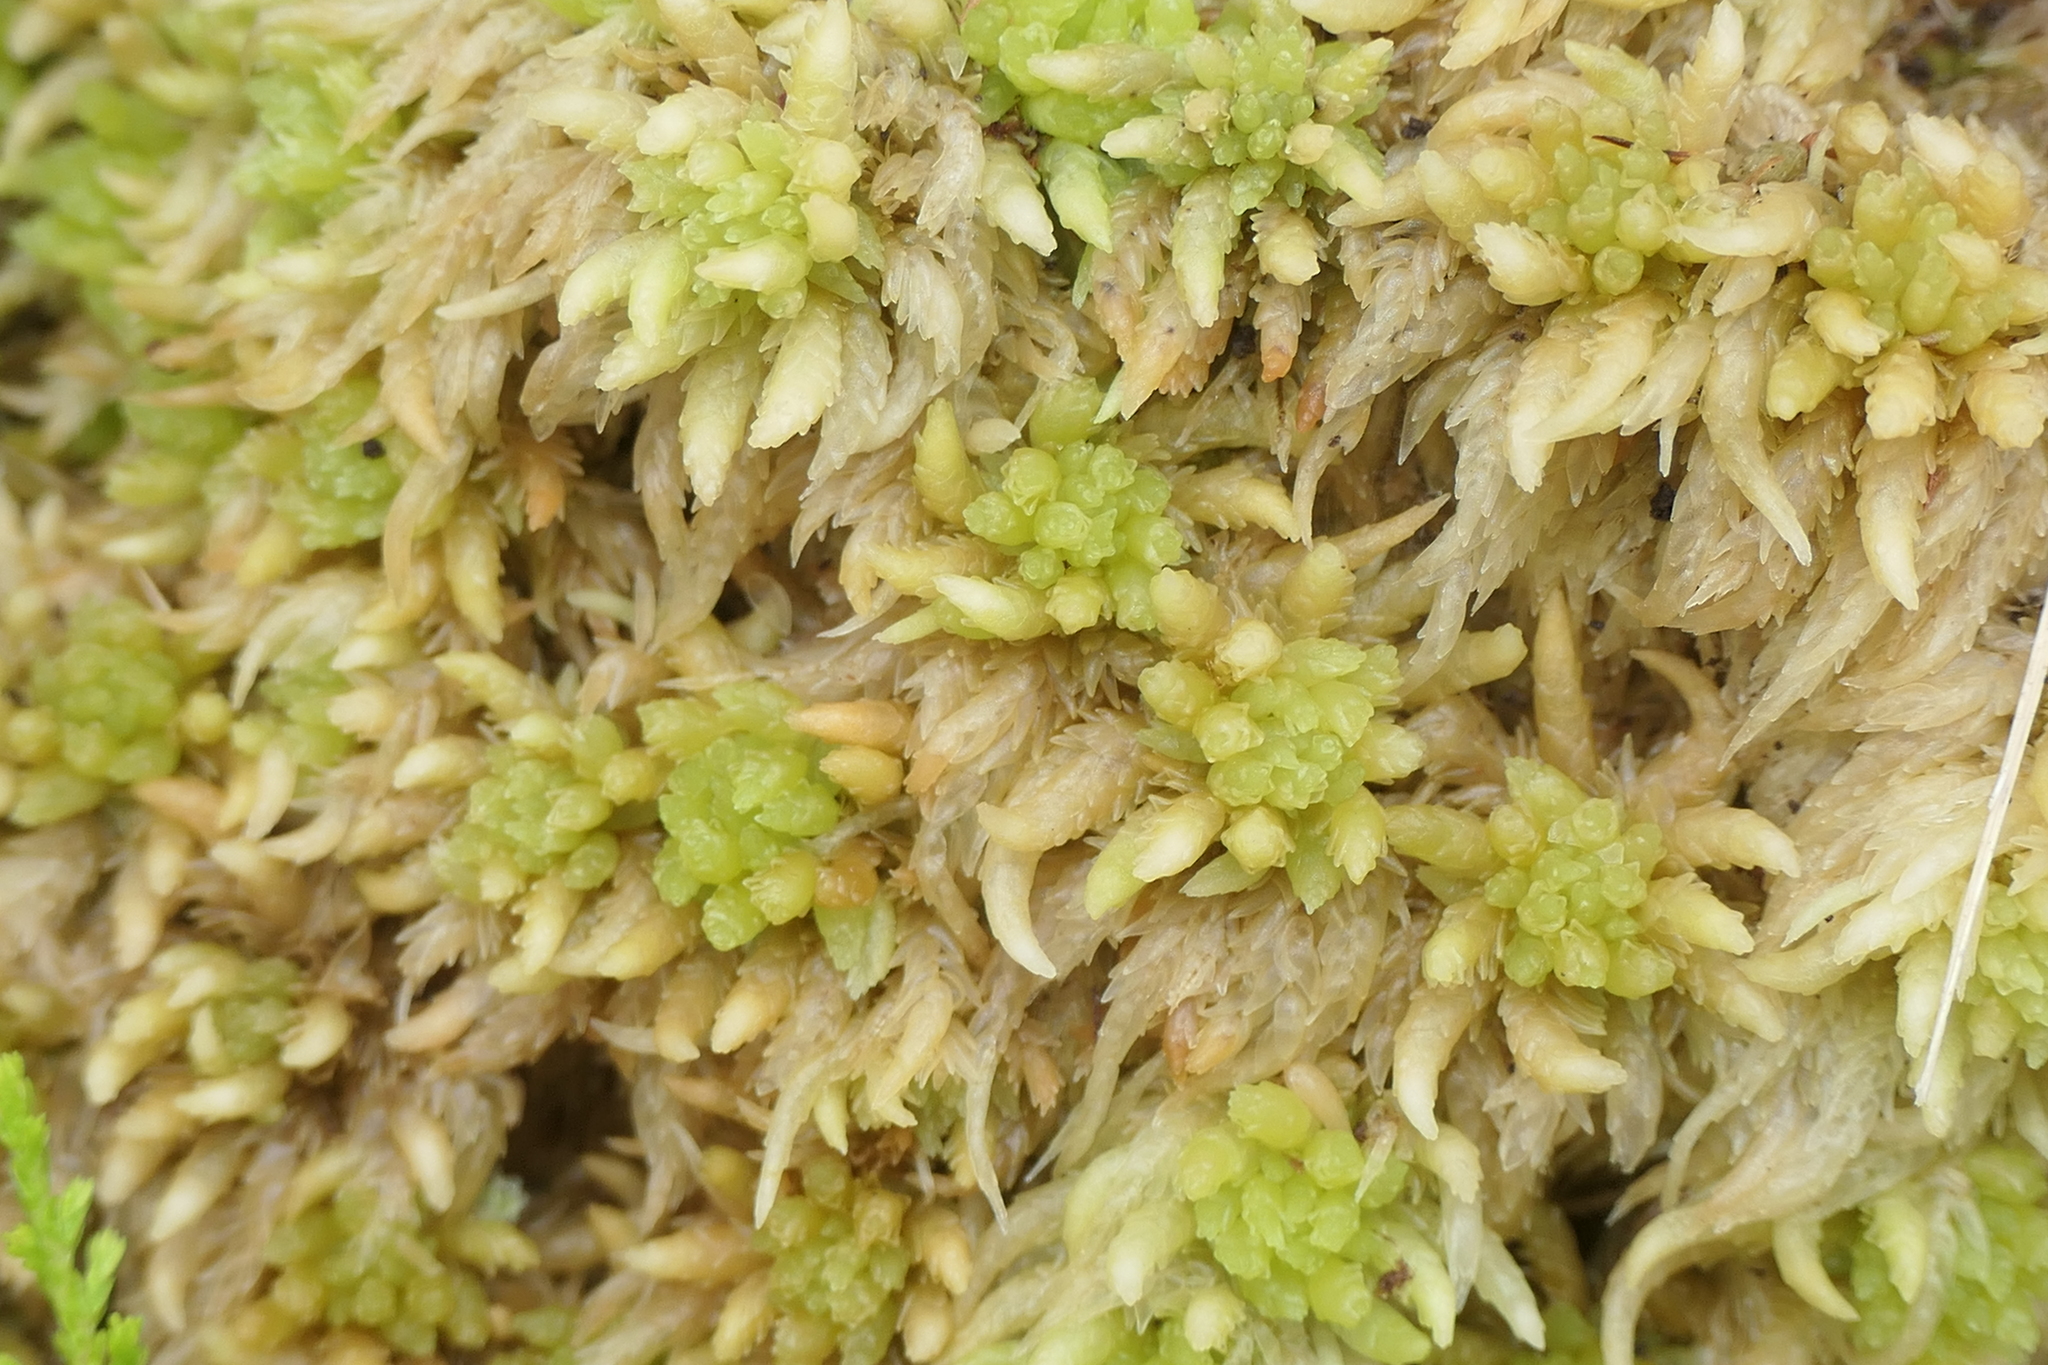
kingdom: Plantae
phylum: Bryophyta
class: Sphagnopsida
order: Sphagnales
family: Sphagnaceae
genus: Sphagnum
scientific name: Sphagnum palustre
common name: Blunt-leaved bog-moss
